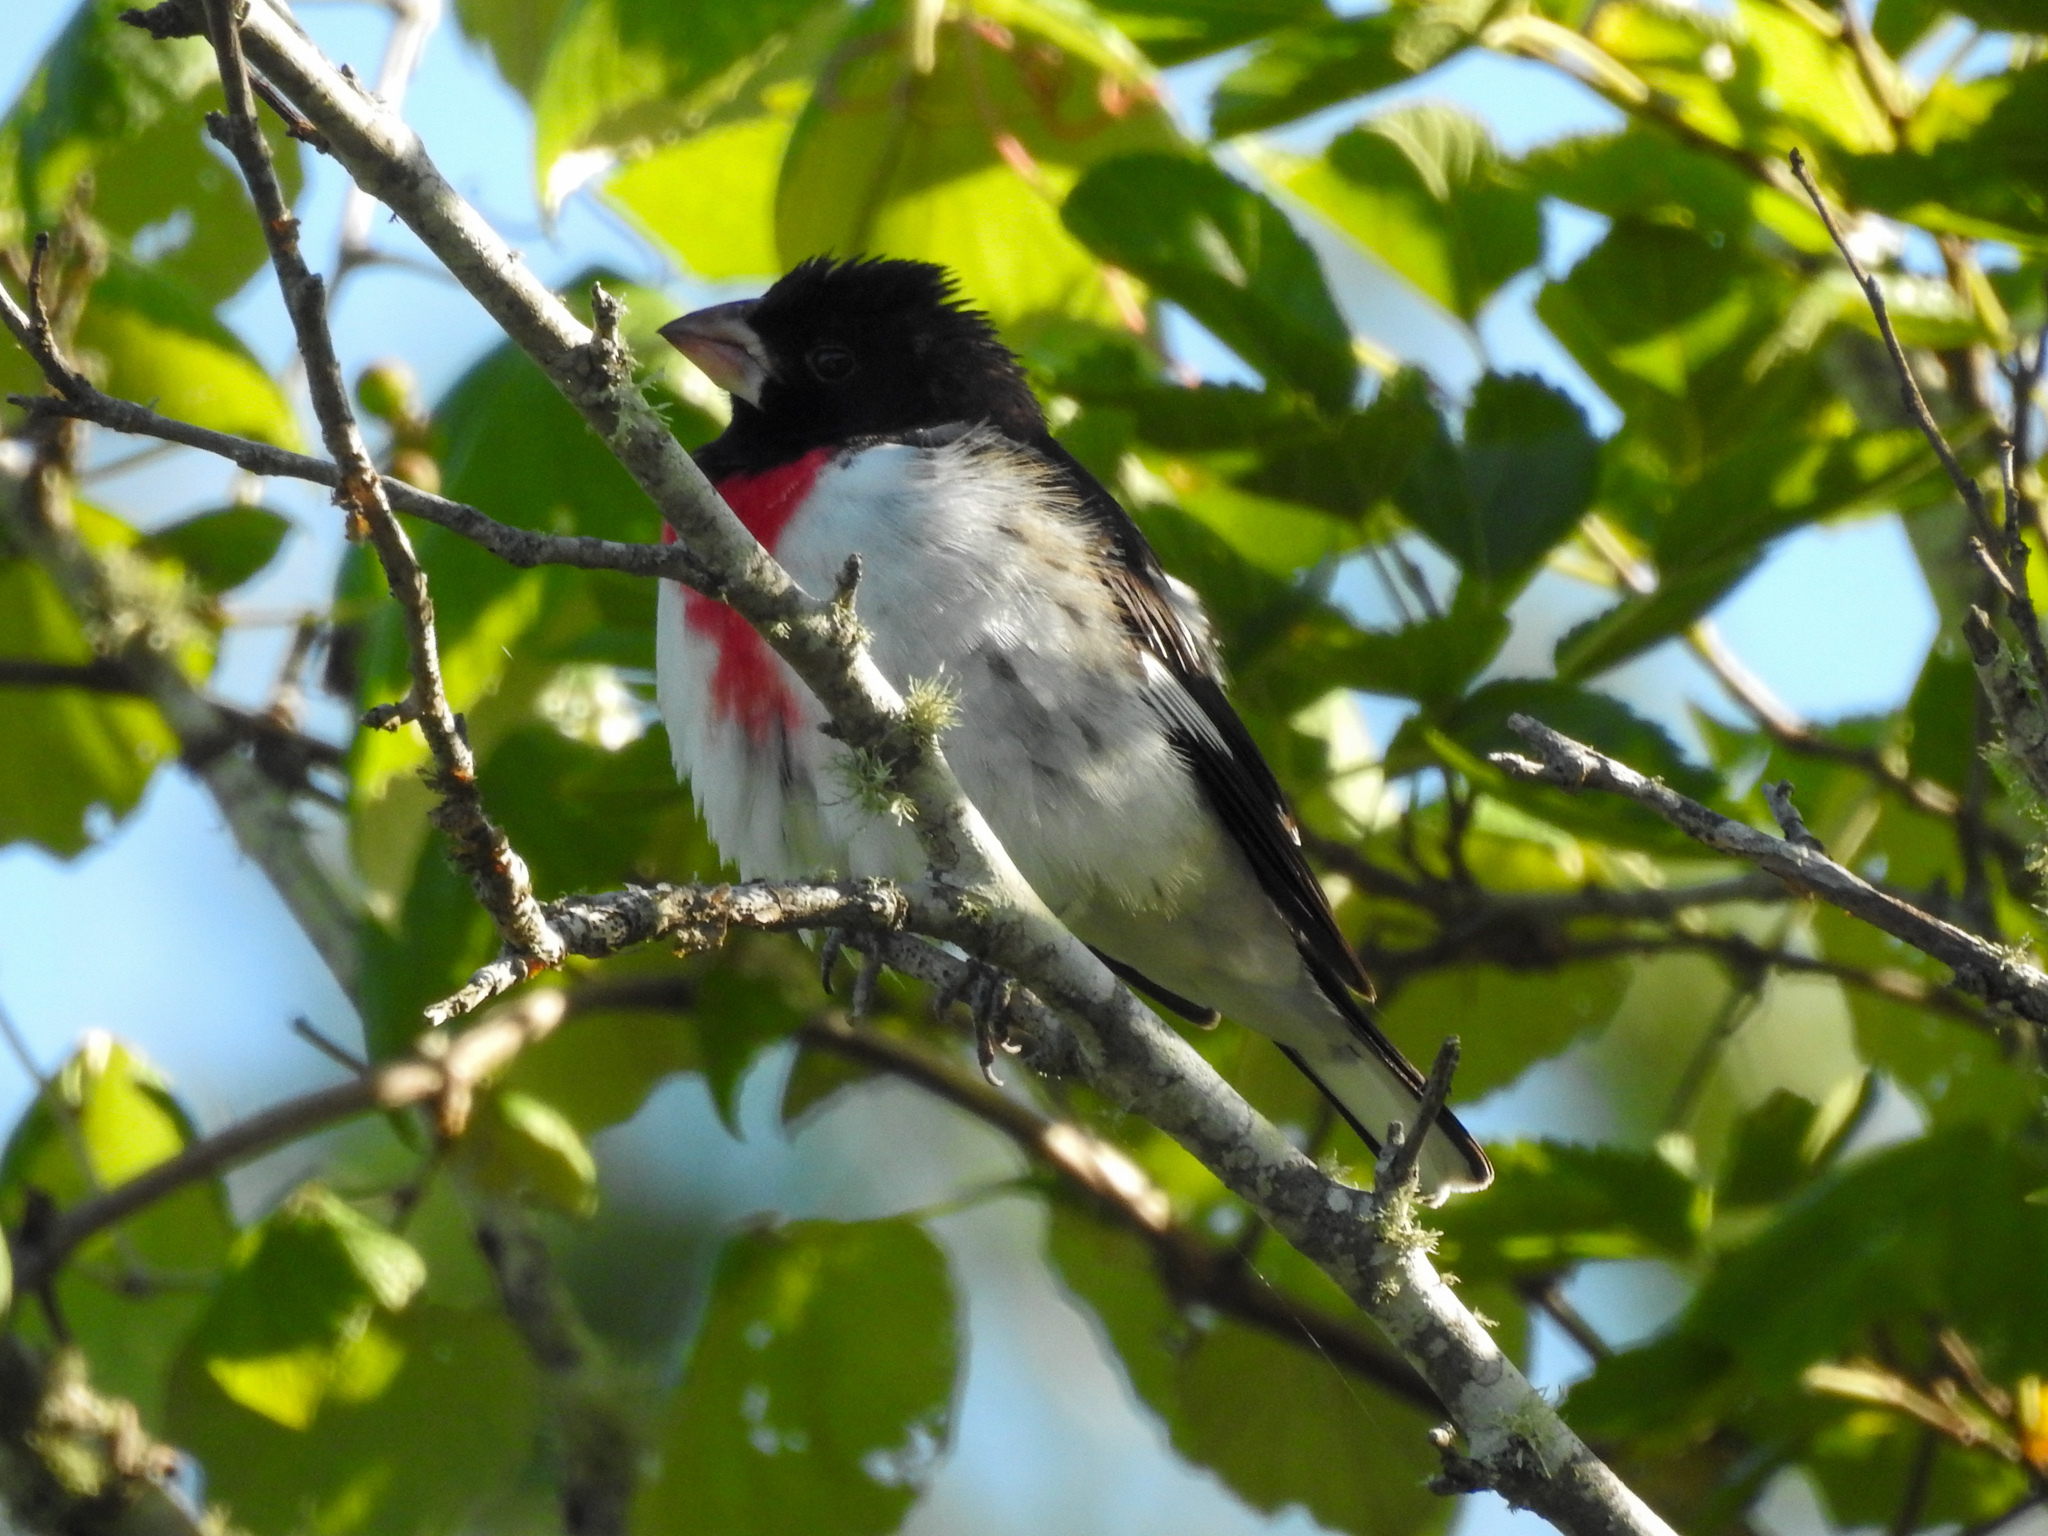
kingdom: Animalia
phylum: Chordata
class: Aves
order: Passeriformes
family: Cardinalidae
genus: Pheucticus
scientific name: Pheucticus ludovicianus
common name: Rose-breasted grosbeak
